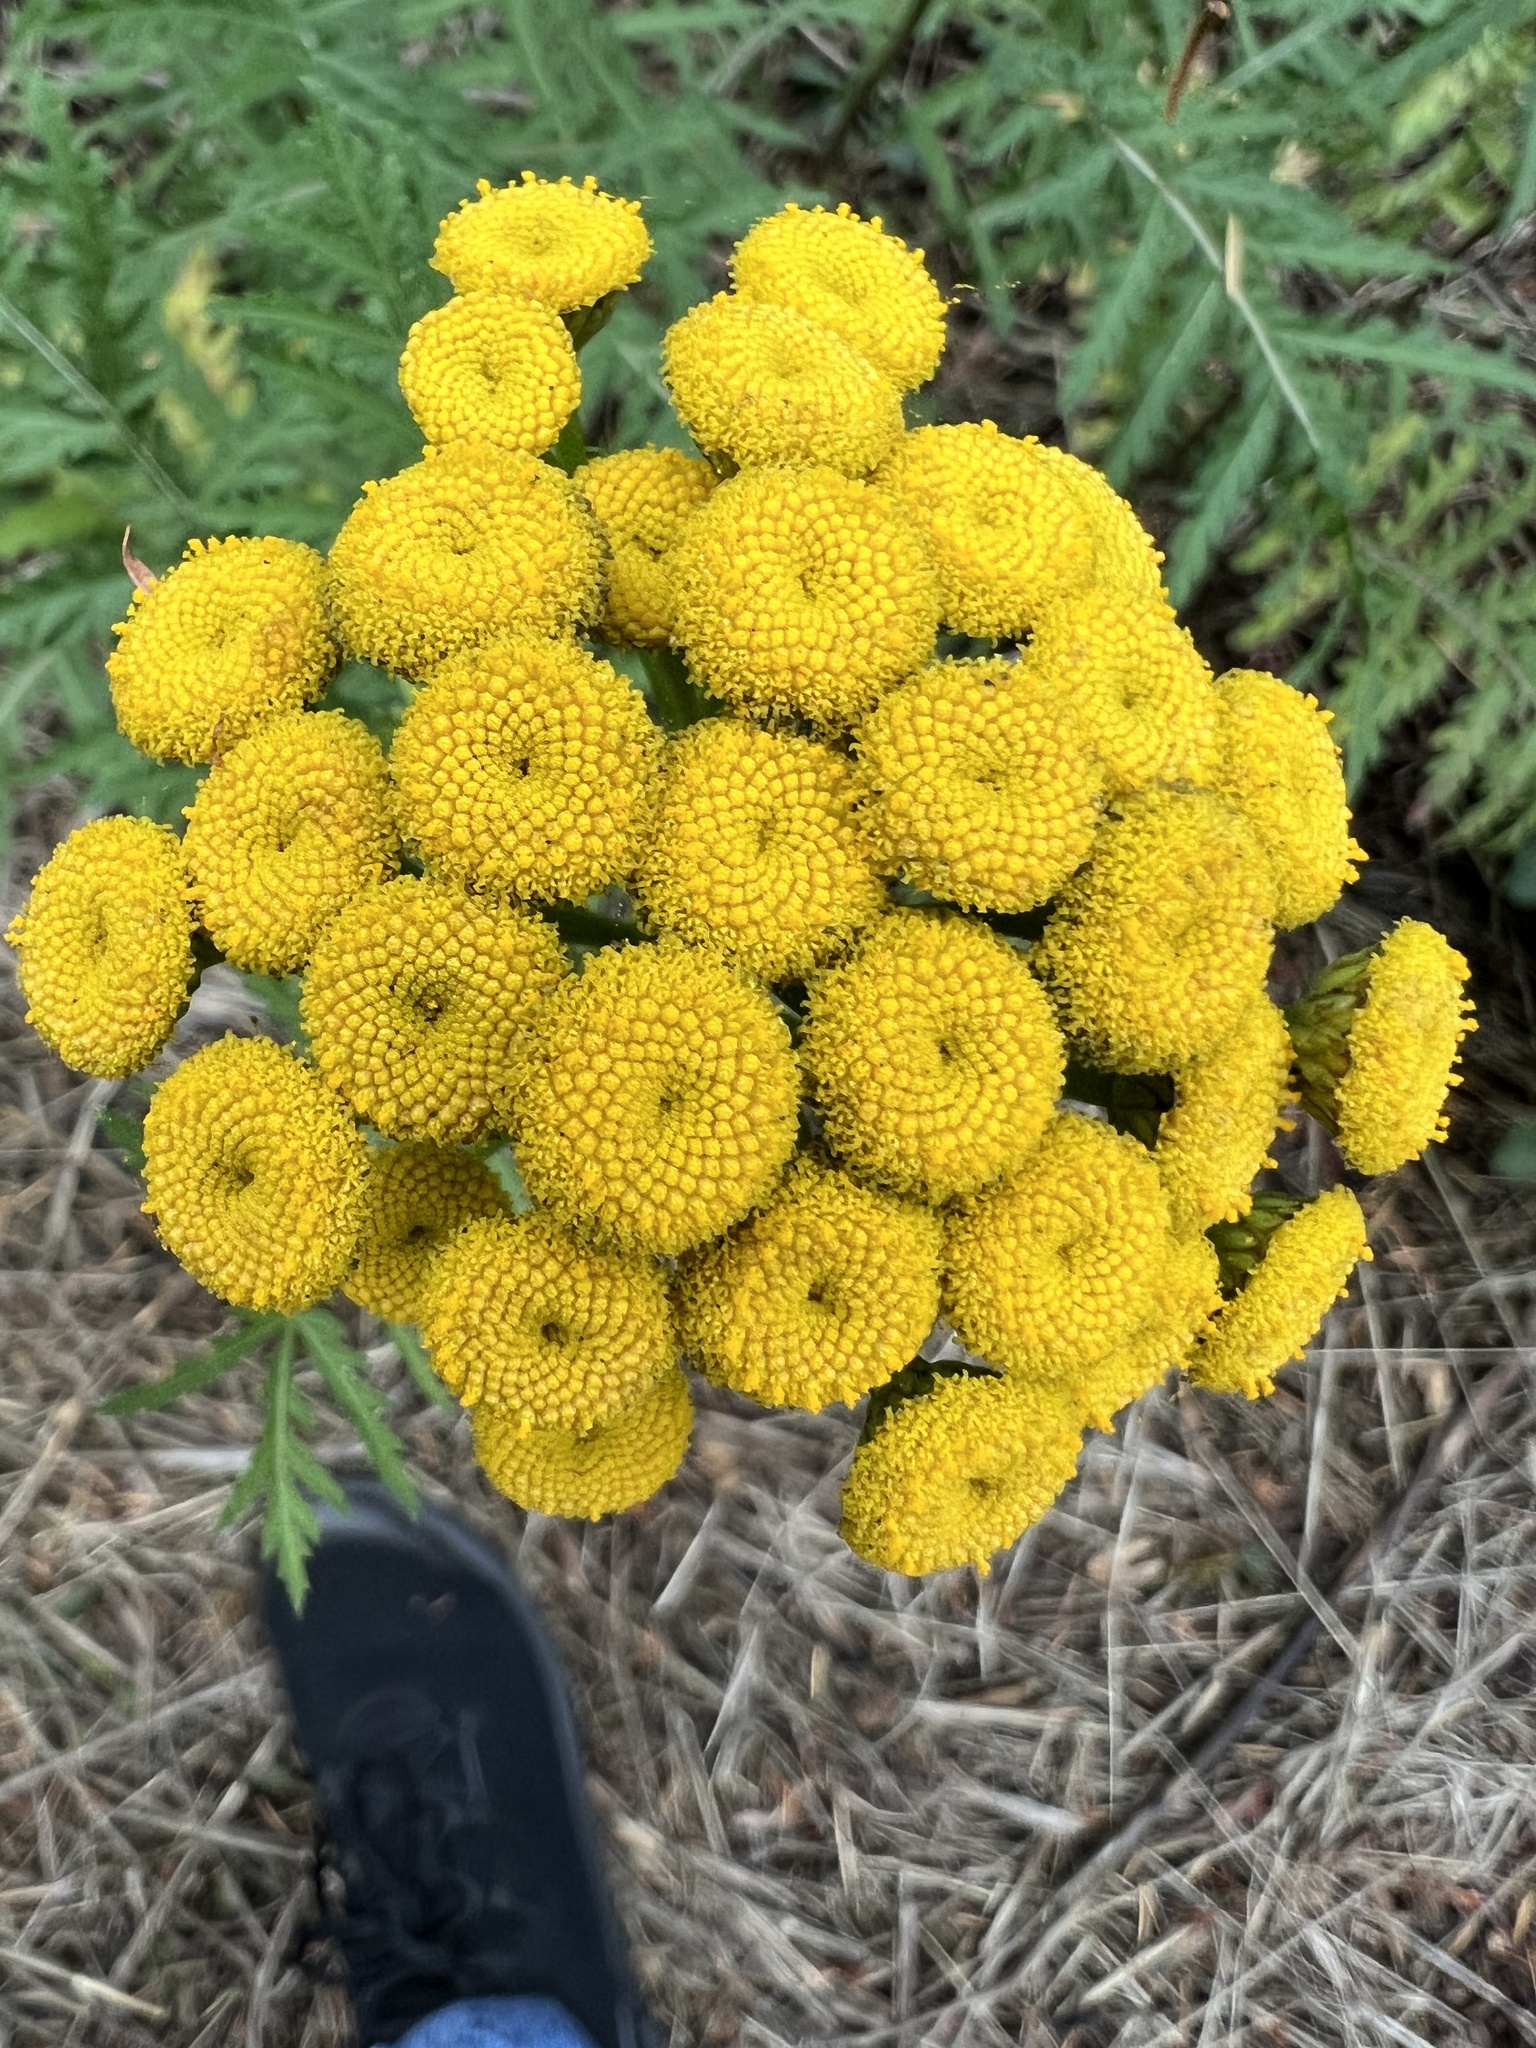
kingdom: Plantae
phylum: Tracheophyta
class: Magnoliopsida
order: Asterales
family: Asteraceae
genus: Tanacetum
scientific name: Tanacetum vulgare
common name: Common tansy
